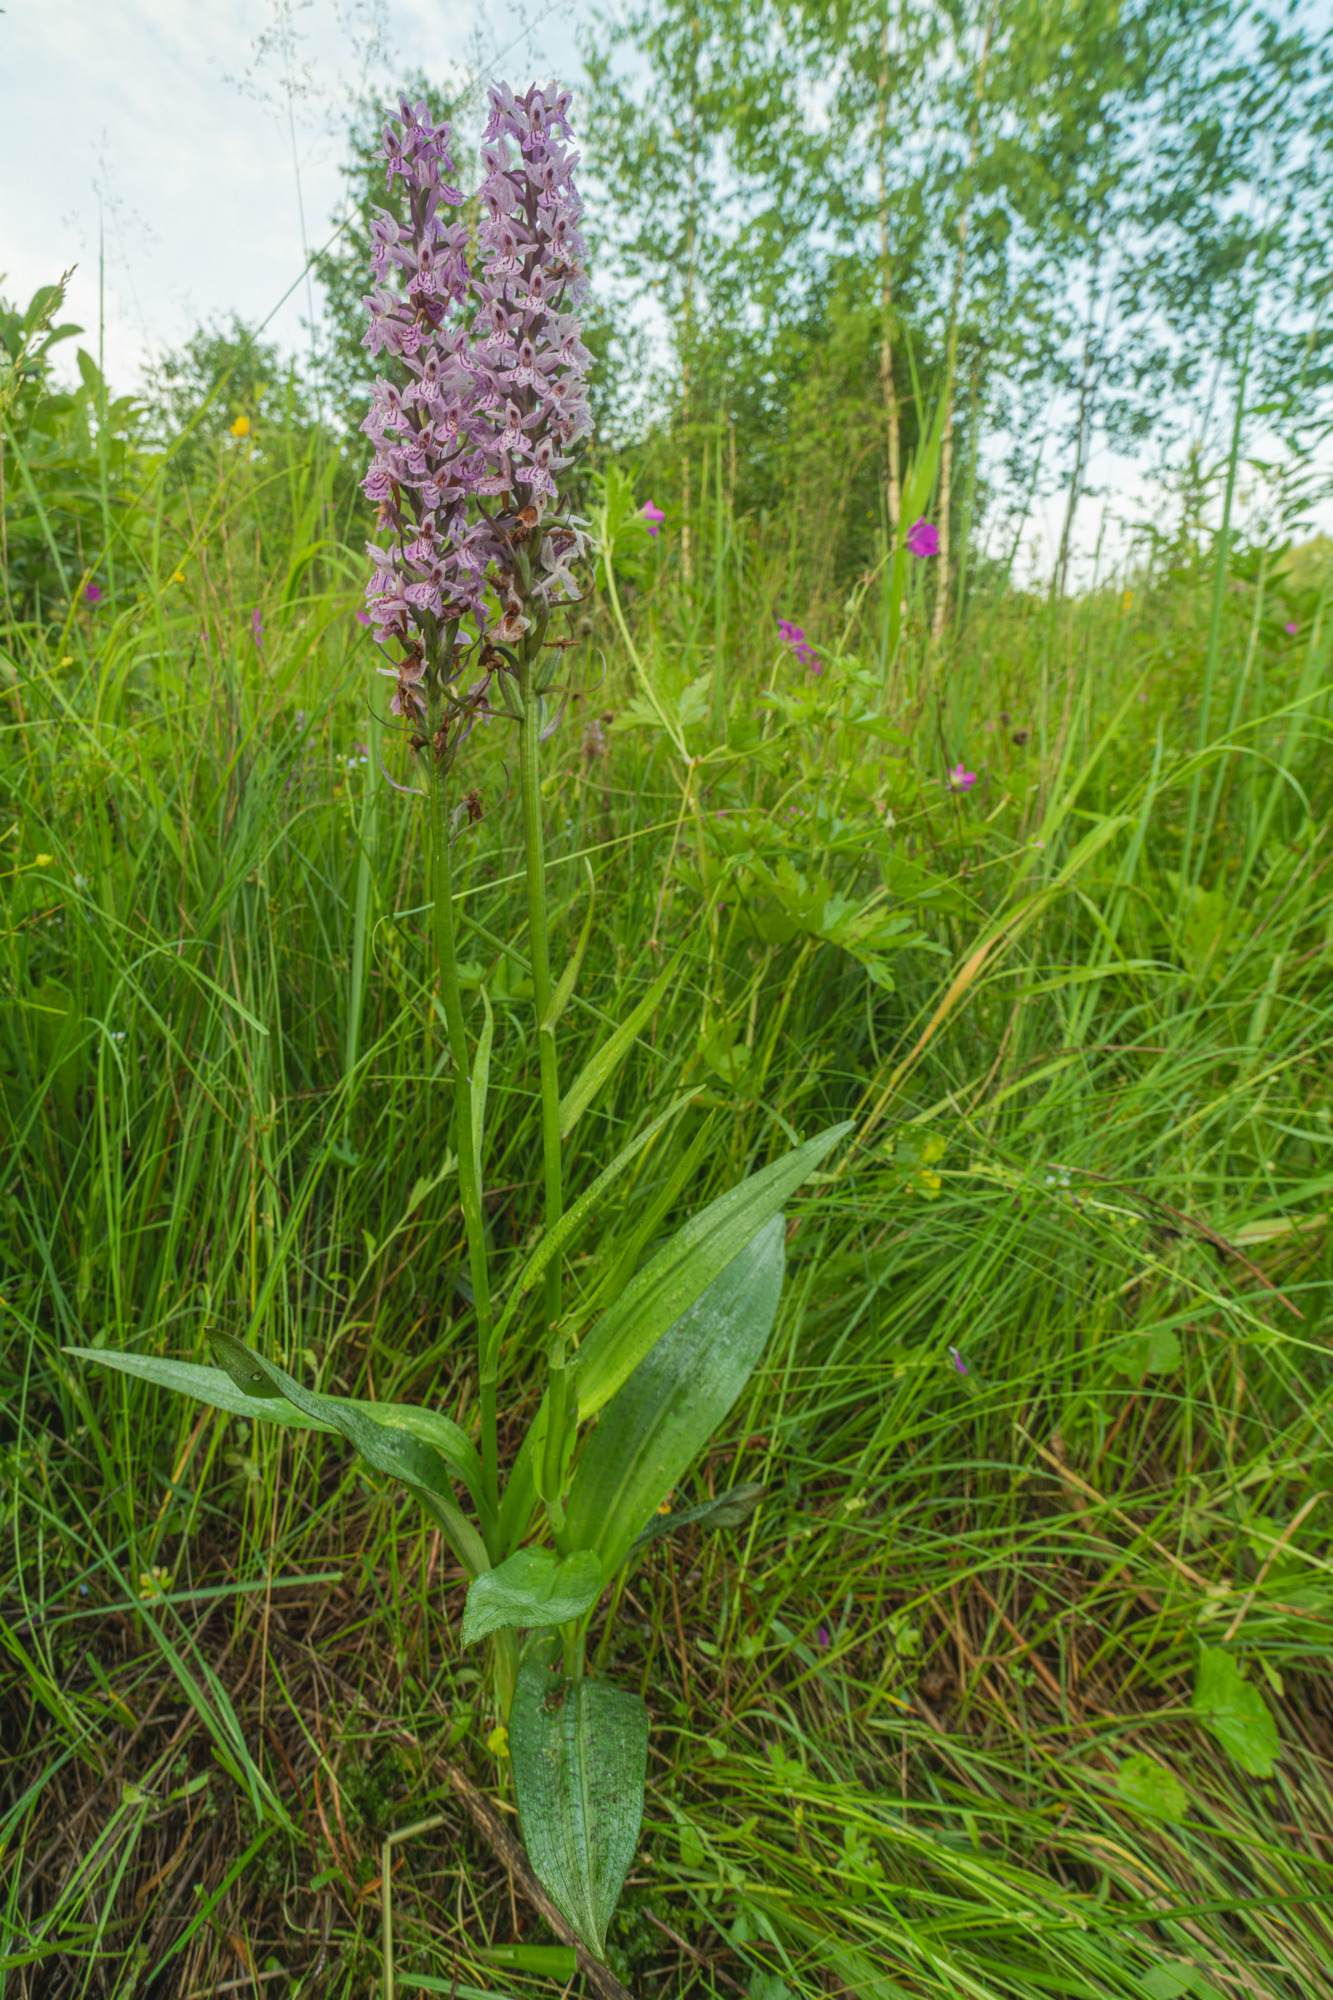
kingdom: Plantae
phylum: Tracheophyta
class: Liliopsida
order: Asparagales
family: Orchidaceae
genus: Dactylorhiza
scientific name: Dactylorhiza majalis
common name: Marsh orchid
